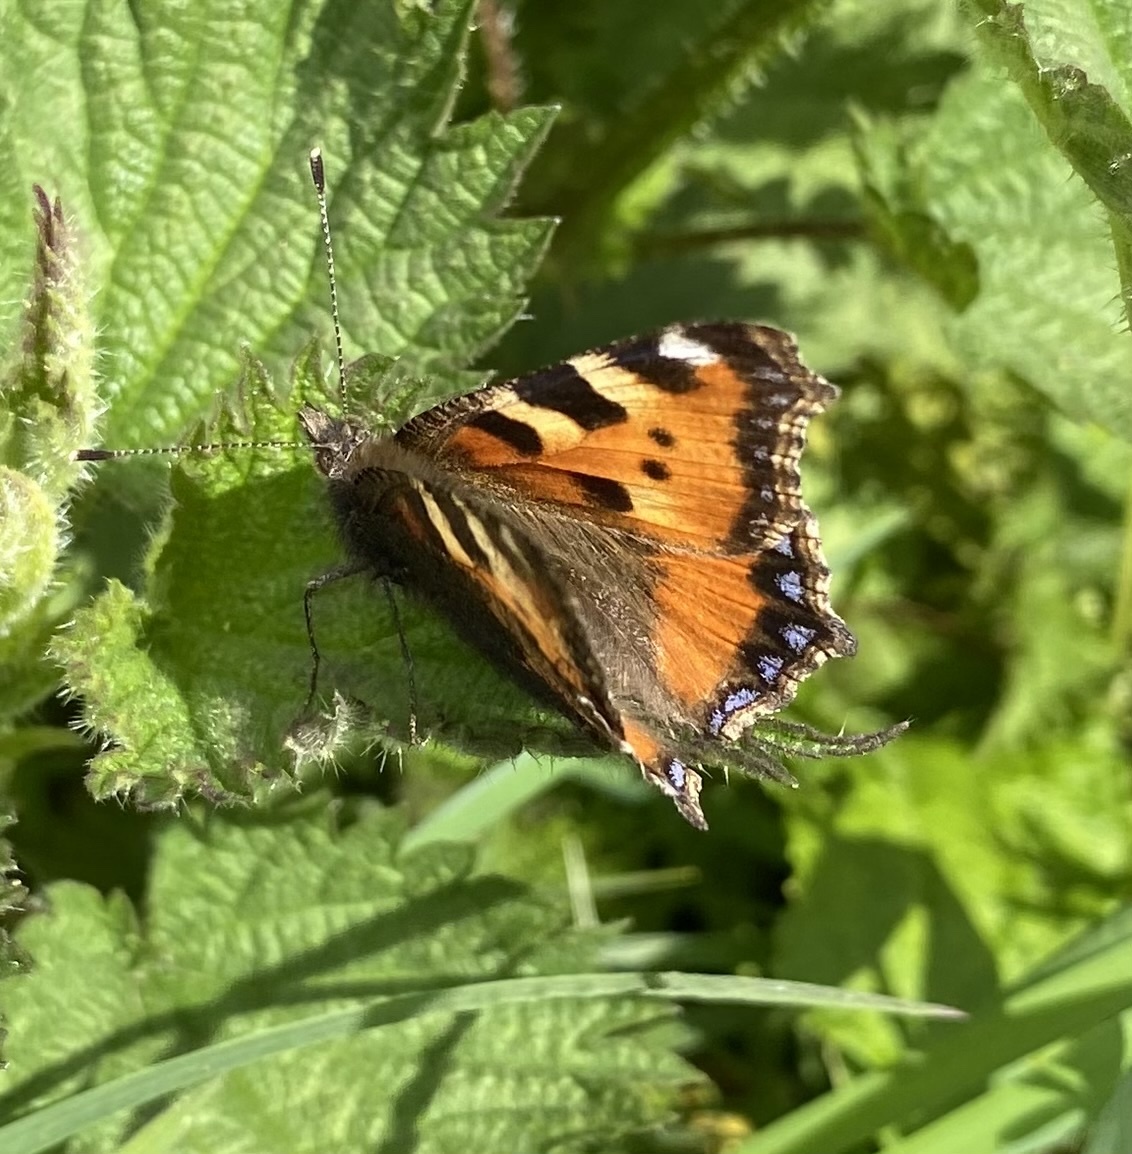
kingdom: Animalia
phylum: Arthropoda
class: Insecta
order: Lepidoptera
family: Nymphalidae
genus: Aglais
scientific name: Aglais urticae
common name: Small tortoiseshell
